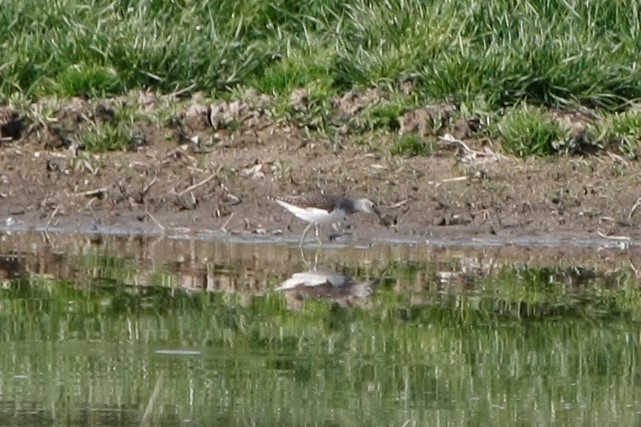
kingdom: Animalia
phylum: Chordata
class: Aves
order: Charadriiformes
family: Scolopacidae
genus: Tringa
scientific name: Tringa ochropus
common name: Green sandpiper
